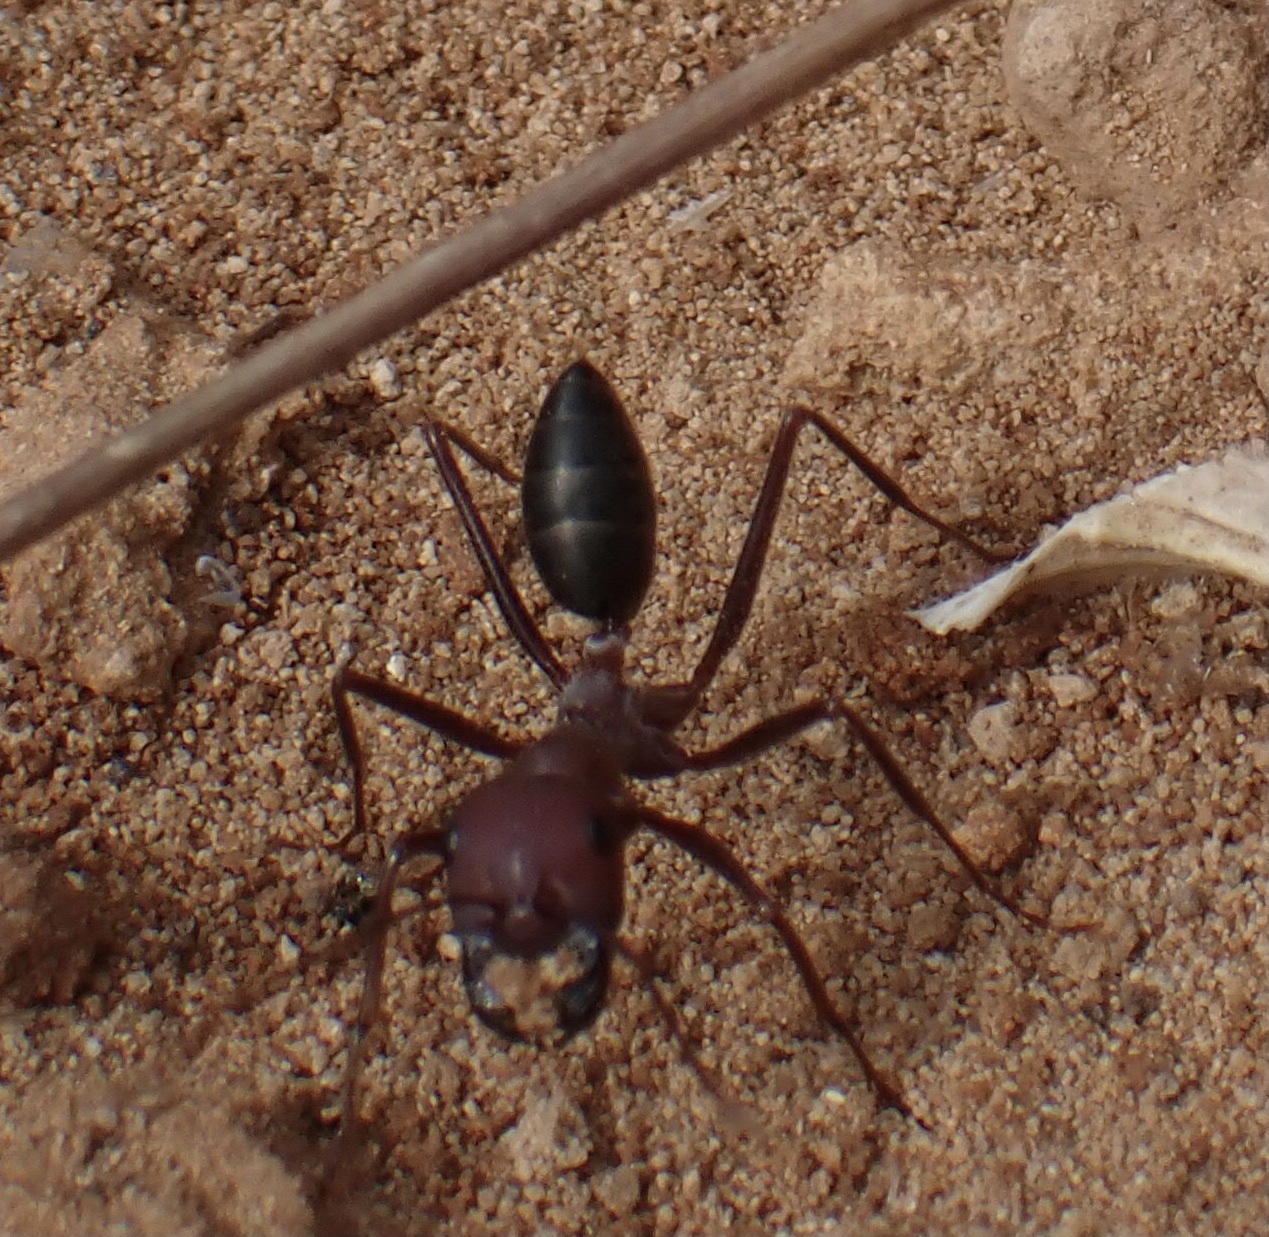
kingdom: Animalia
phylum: Arthropoda
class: Insecta
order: Hymenoptera
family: Formicidae
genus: Cataglyphis
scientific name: Cataglyphis nodus
